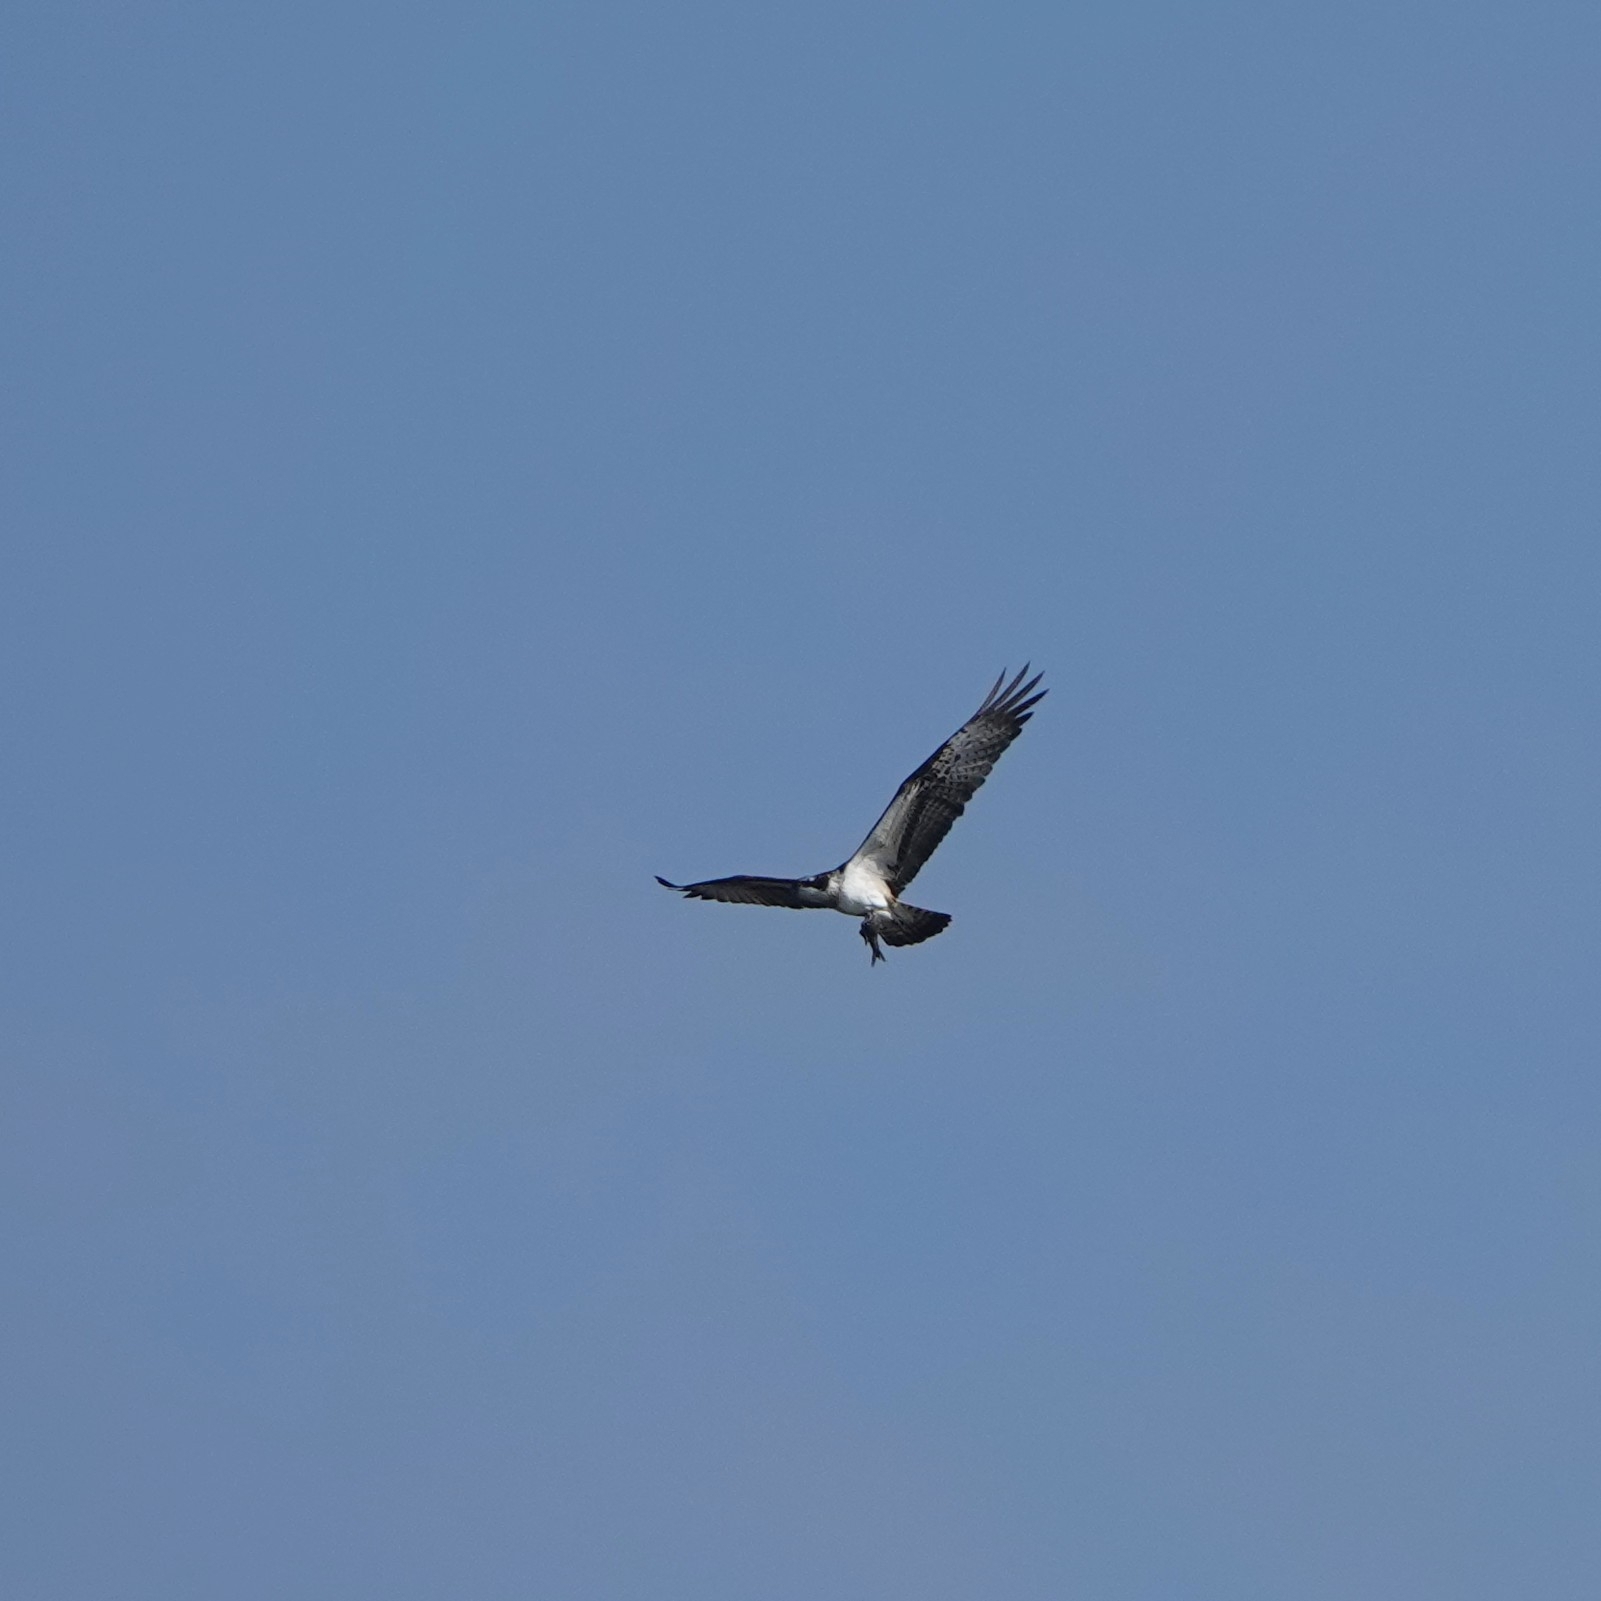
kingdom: Animalia
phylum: Chordata
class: Aves
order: Accipitriformes
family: Pandionidae
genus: Pandion
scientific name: Pandion haliaetus
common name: Osprey
